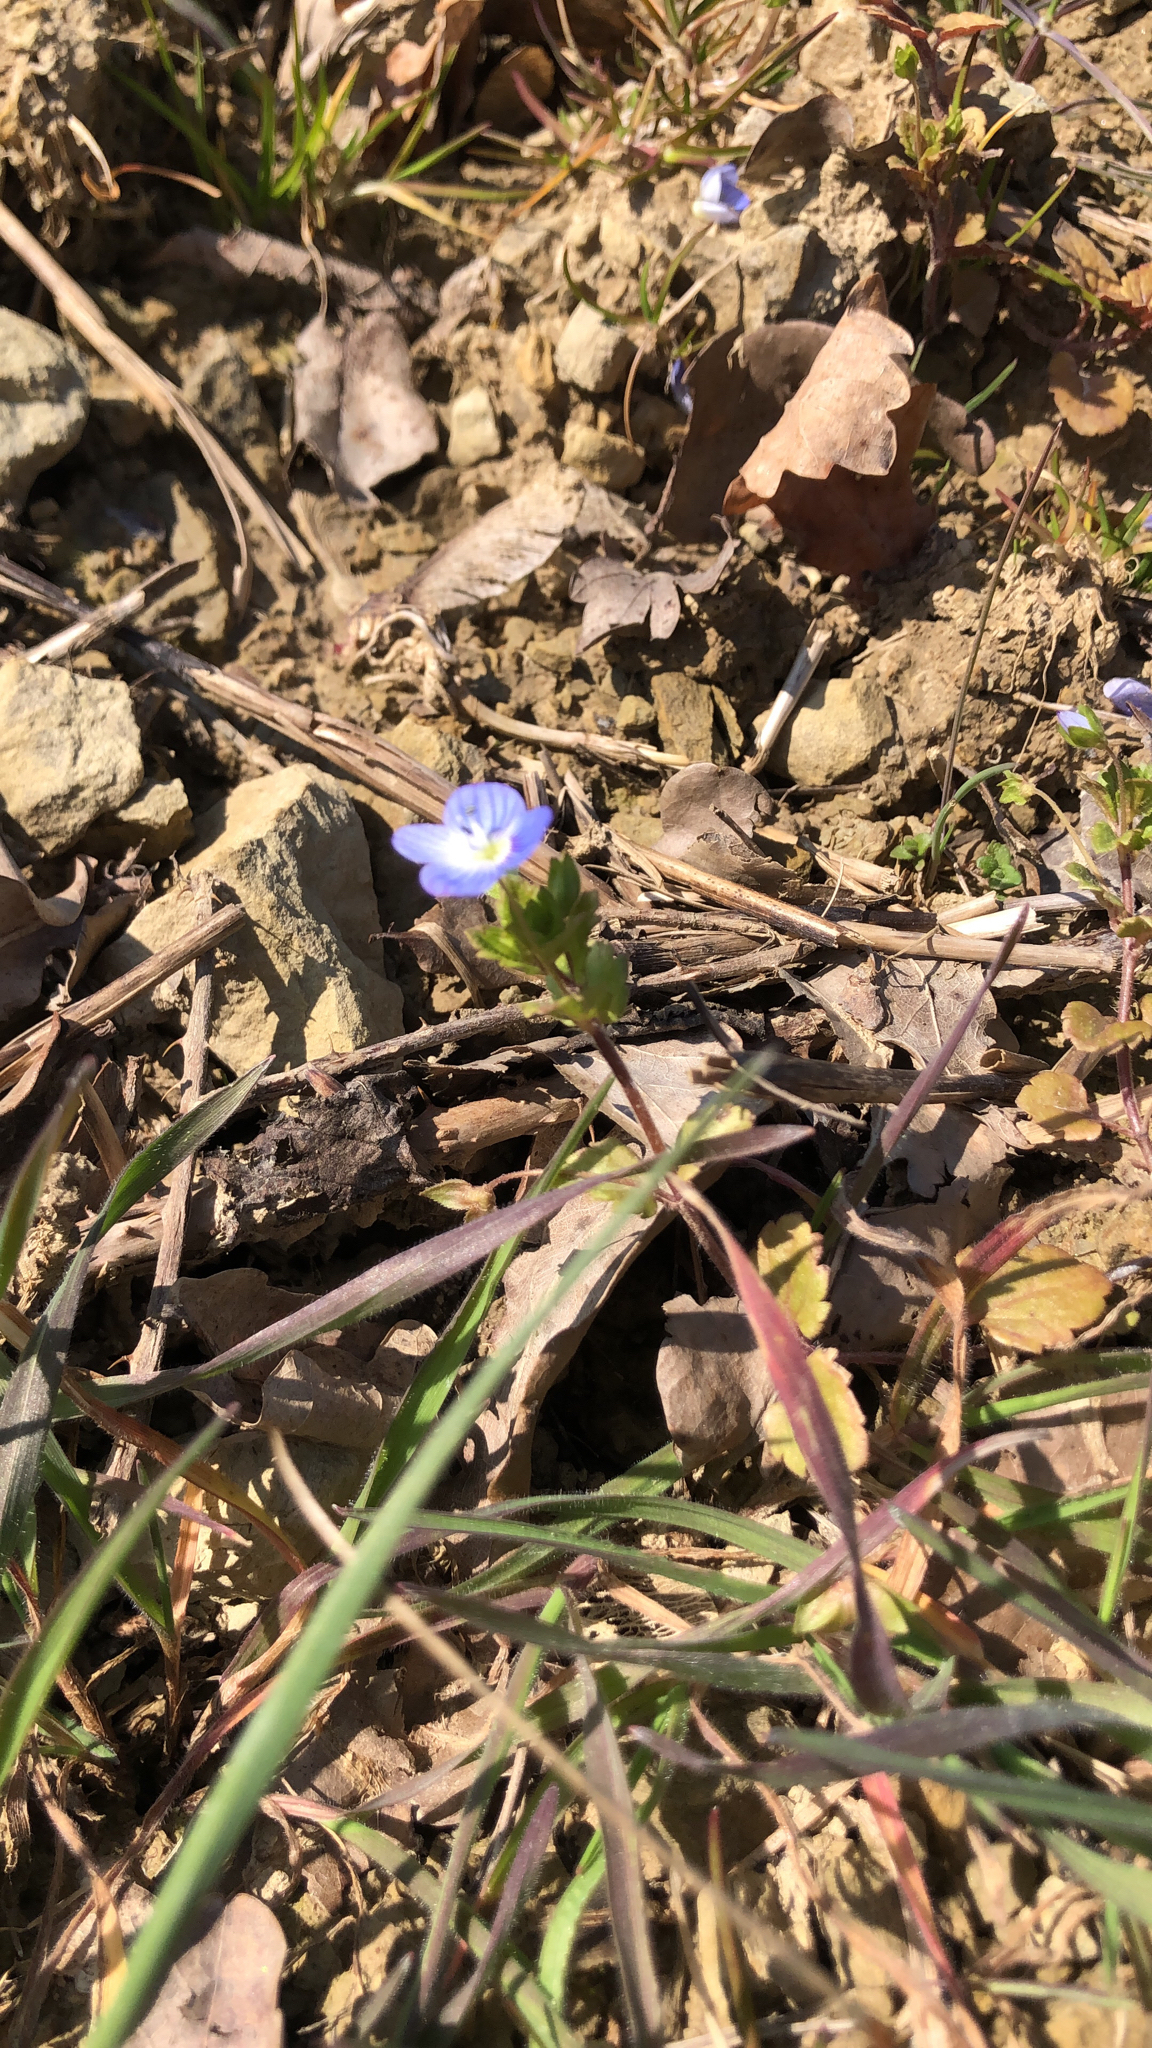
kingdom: Plantae
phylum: Tracheophyta
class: Magnoliopsida
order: Lamiales
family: Plantaginaceae
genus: Veronica
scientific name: Veronica persica
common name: Common field-speedwell
